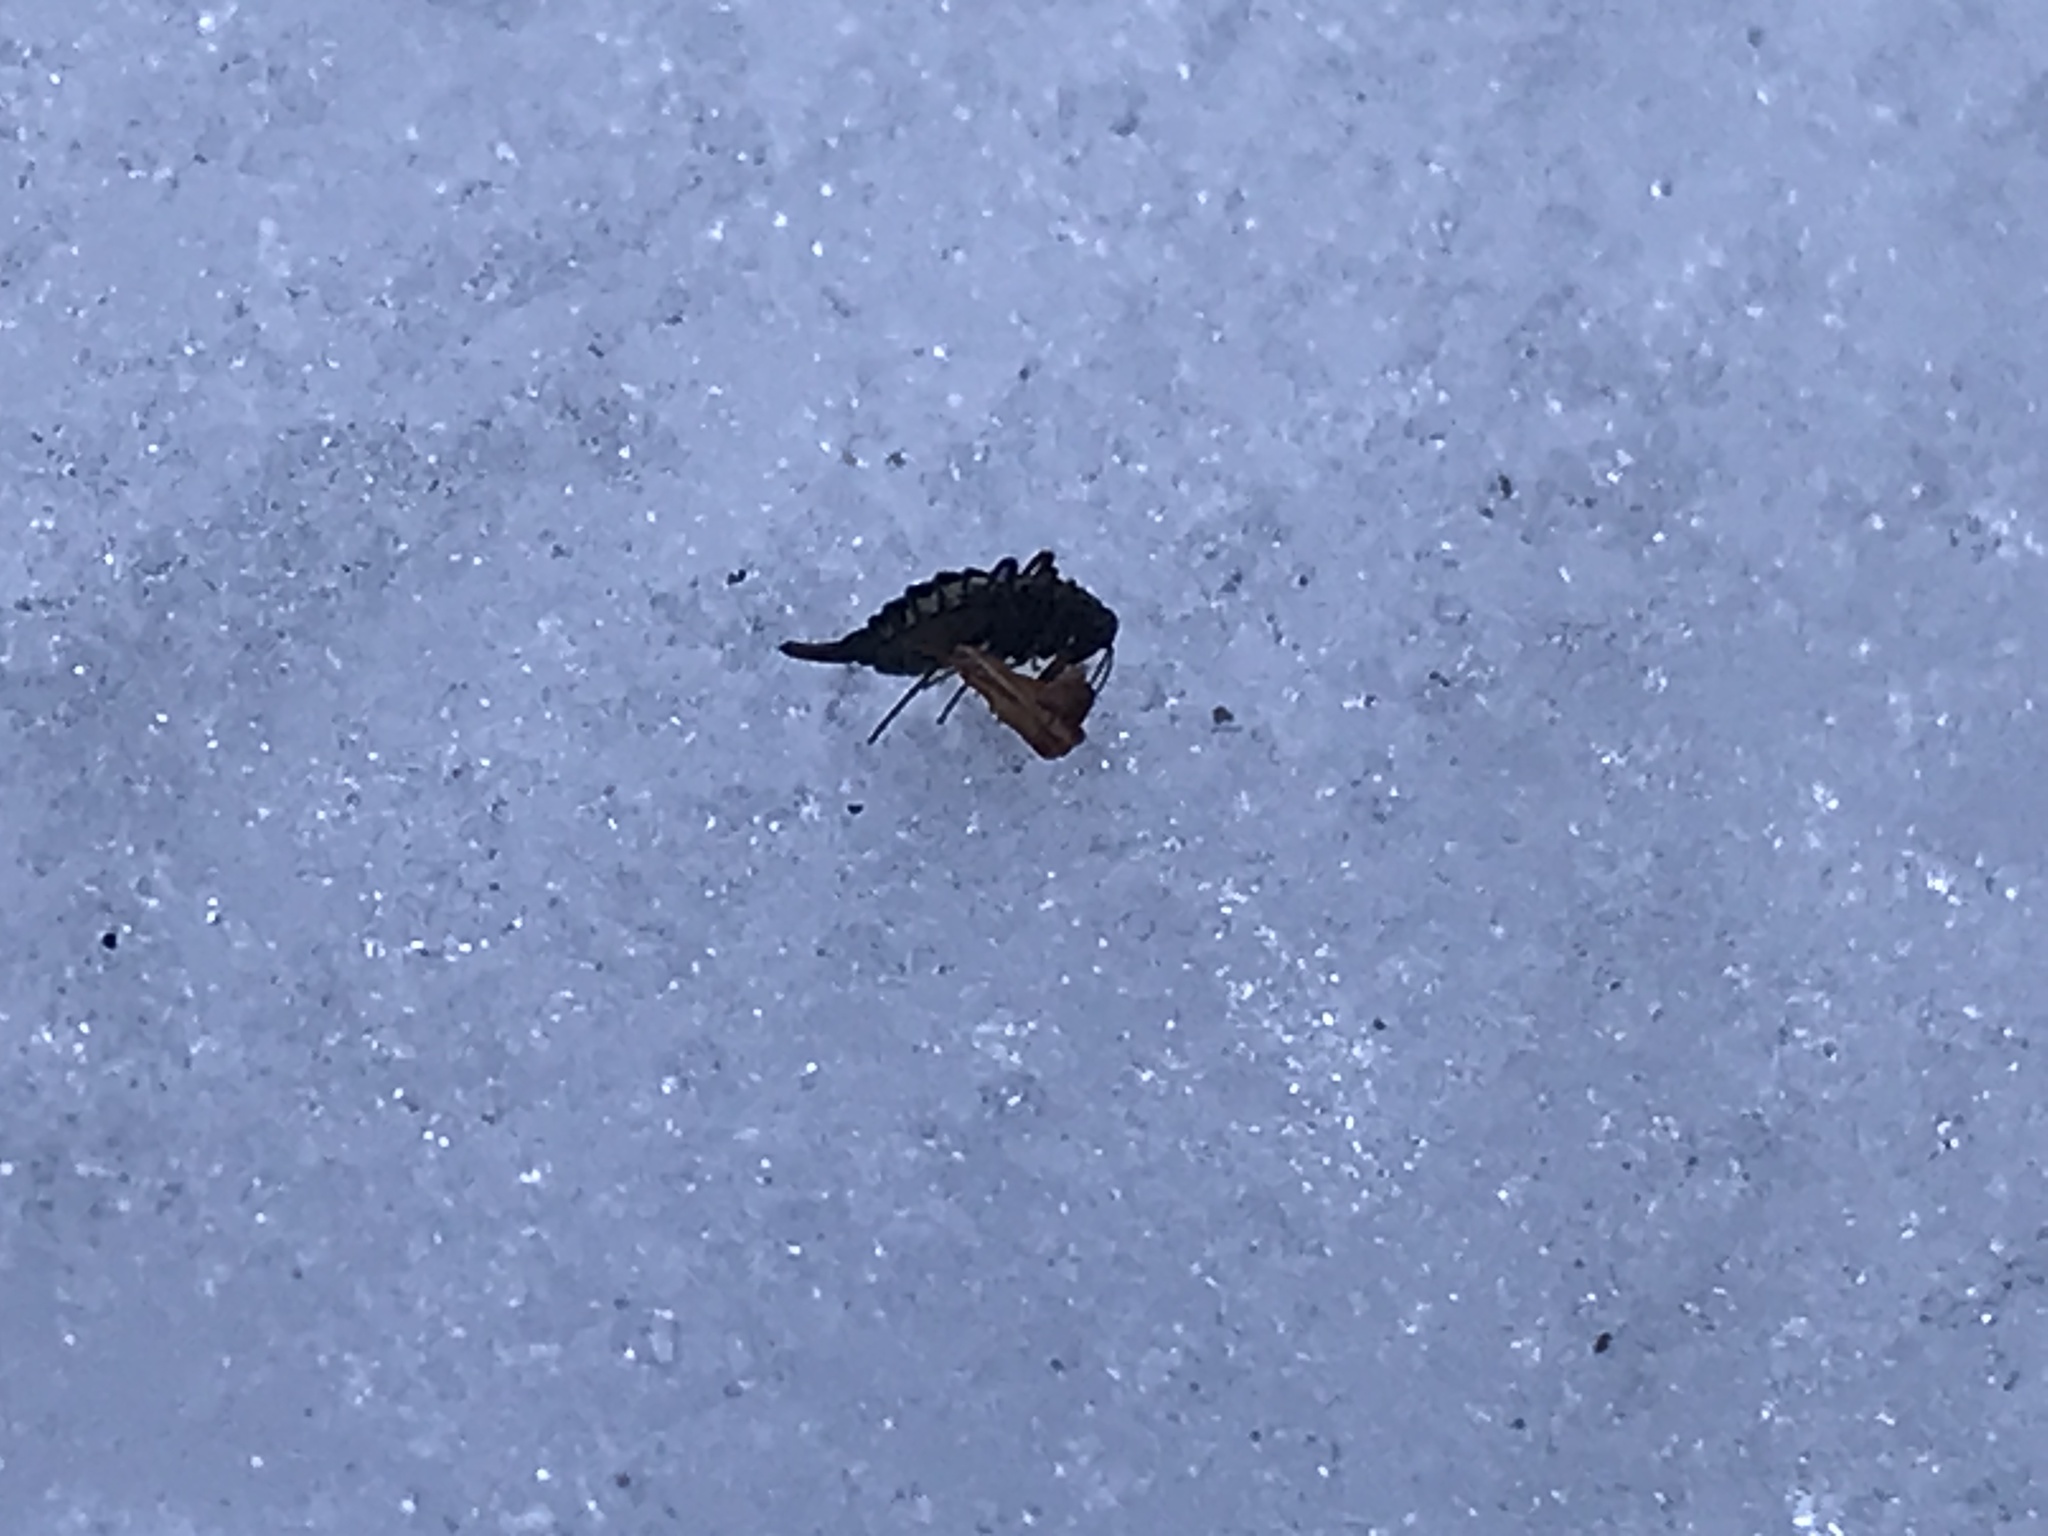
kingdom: Animalia
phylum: Arthropoda
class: Insecta
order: Mecoptera
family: Boreidae
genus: Boreus
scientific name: Boreus westwoodi
